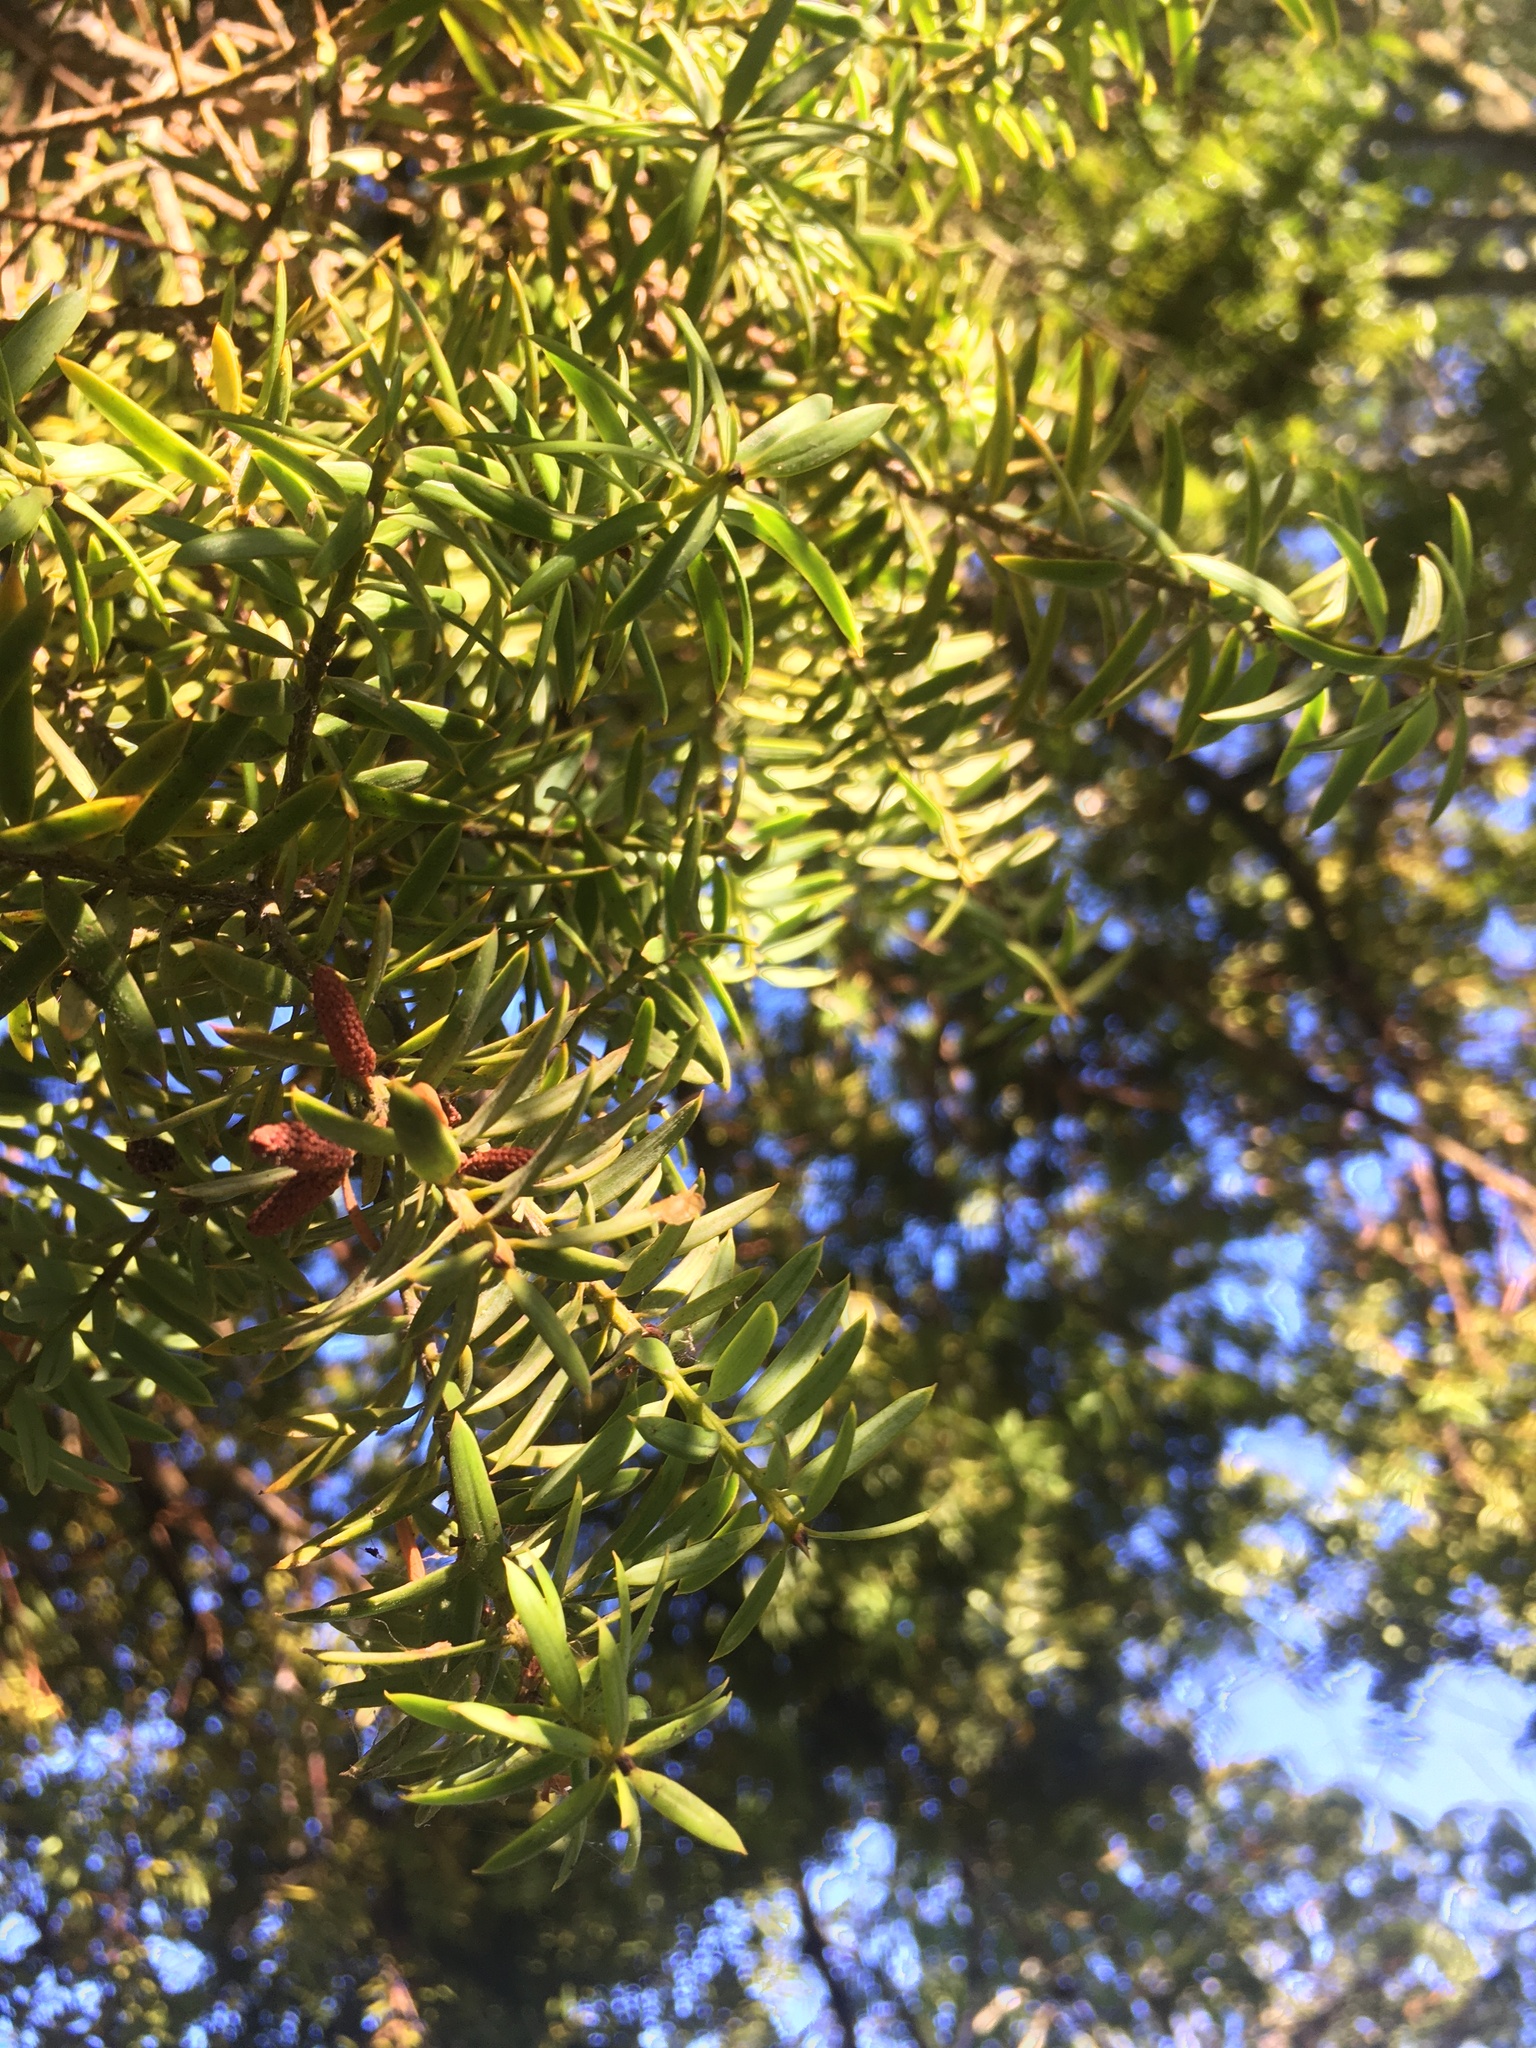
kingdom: Plantae
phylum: Tracheophyta
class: Pinopsida
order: Pinales
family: Podocarpaceae
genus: Podocarpus
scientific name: Podocarpus totara
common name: Totara
